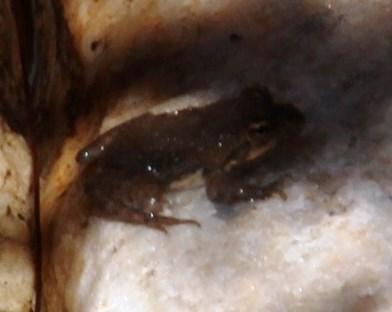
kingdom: Animalia
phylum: Chordata
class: Amphibia
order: Anura
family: Pyxicephalidae
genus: Amietia
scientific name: Amietia fuscigula
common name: Cape rana
